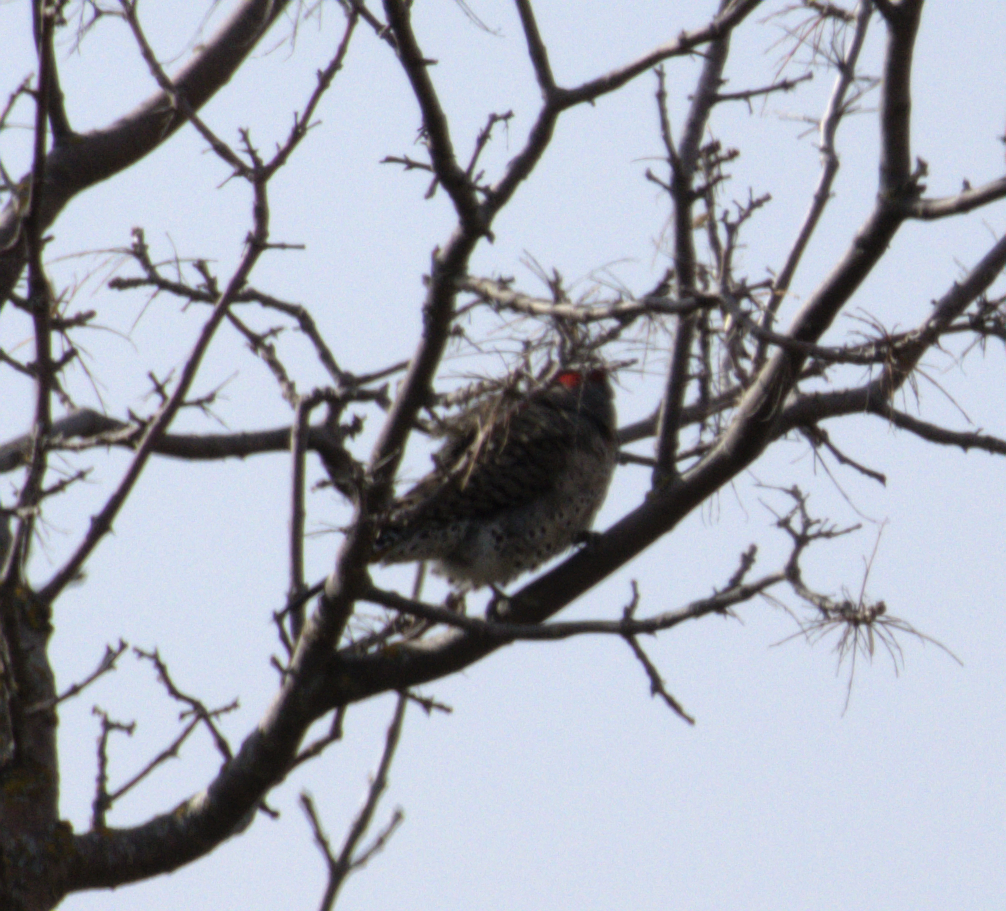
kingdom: Animalia
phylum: Chordata
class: Aves
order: Piciformes
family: Picidae
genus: Colaptes
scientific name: Colaptes auratus
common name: Northern flicker
